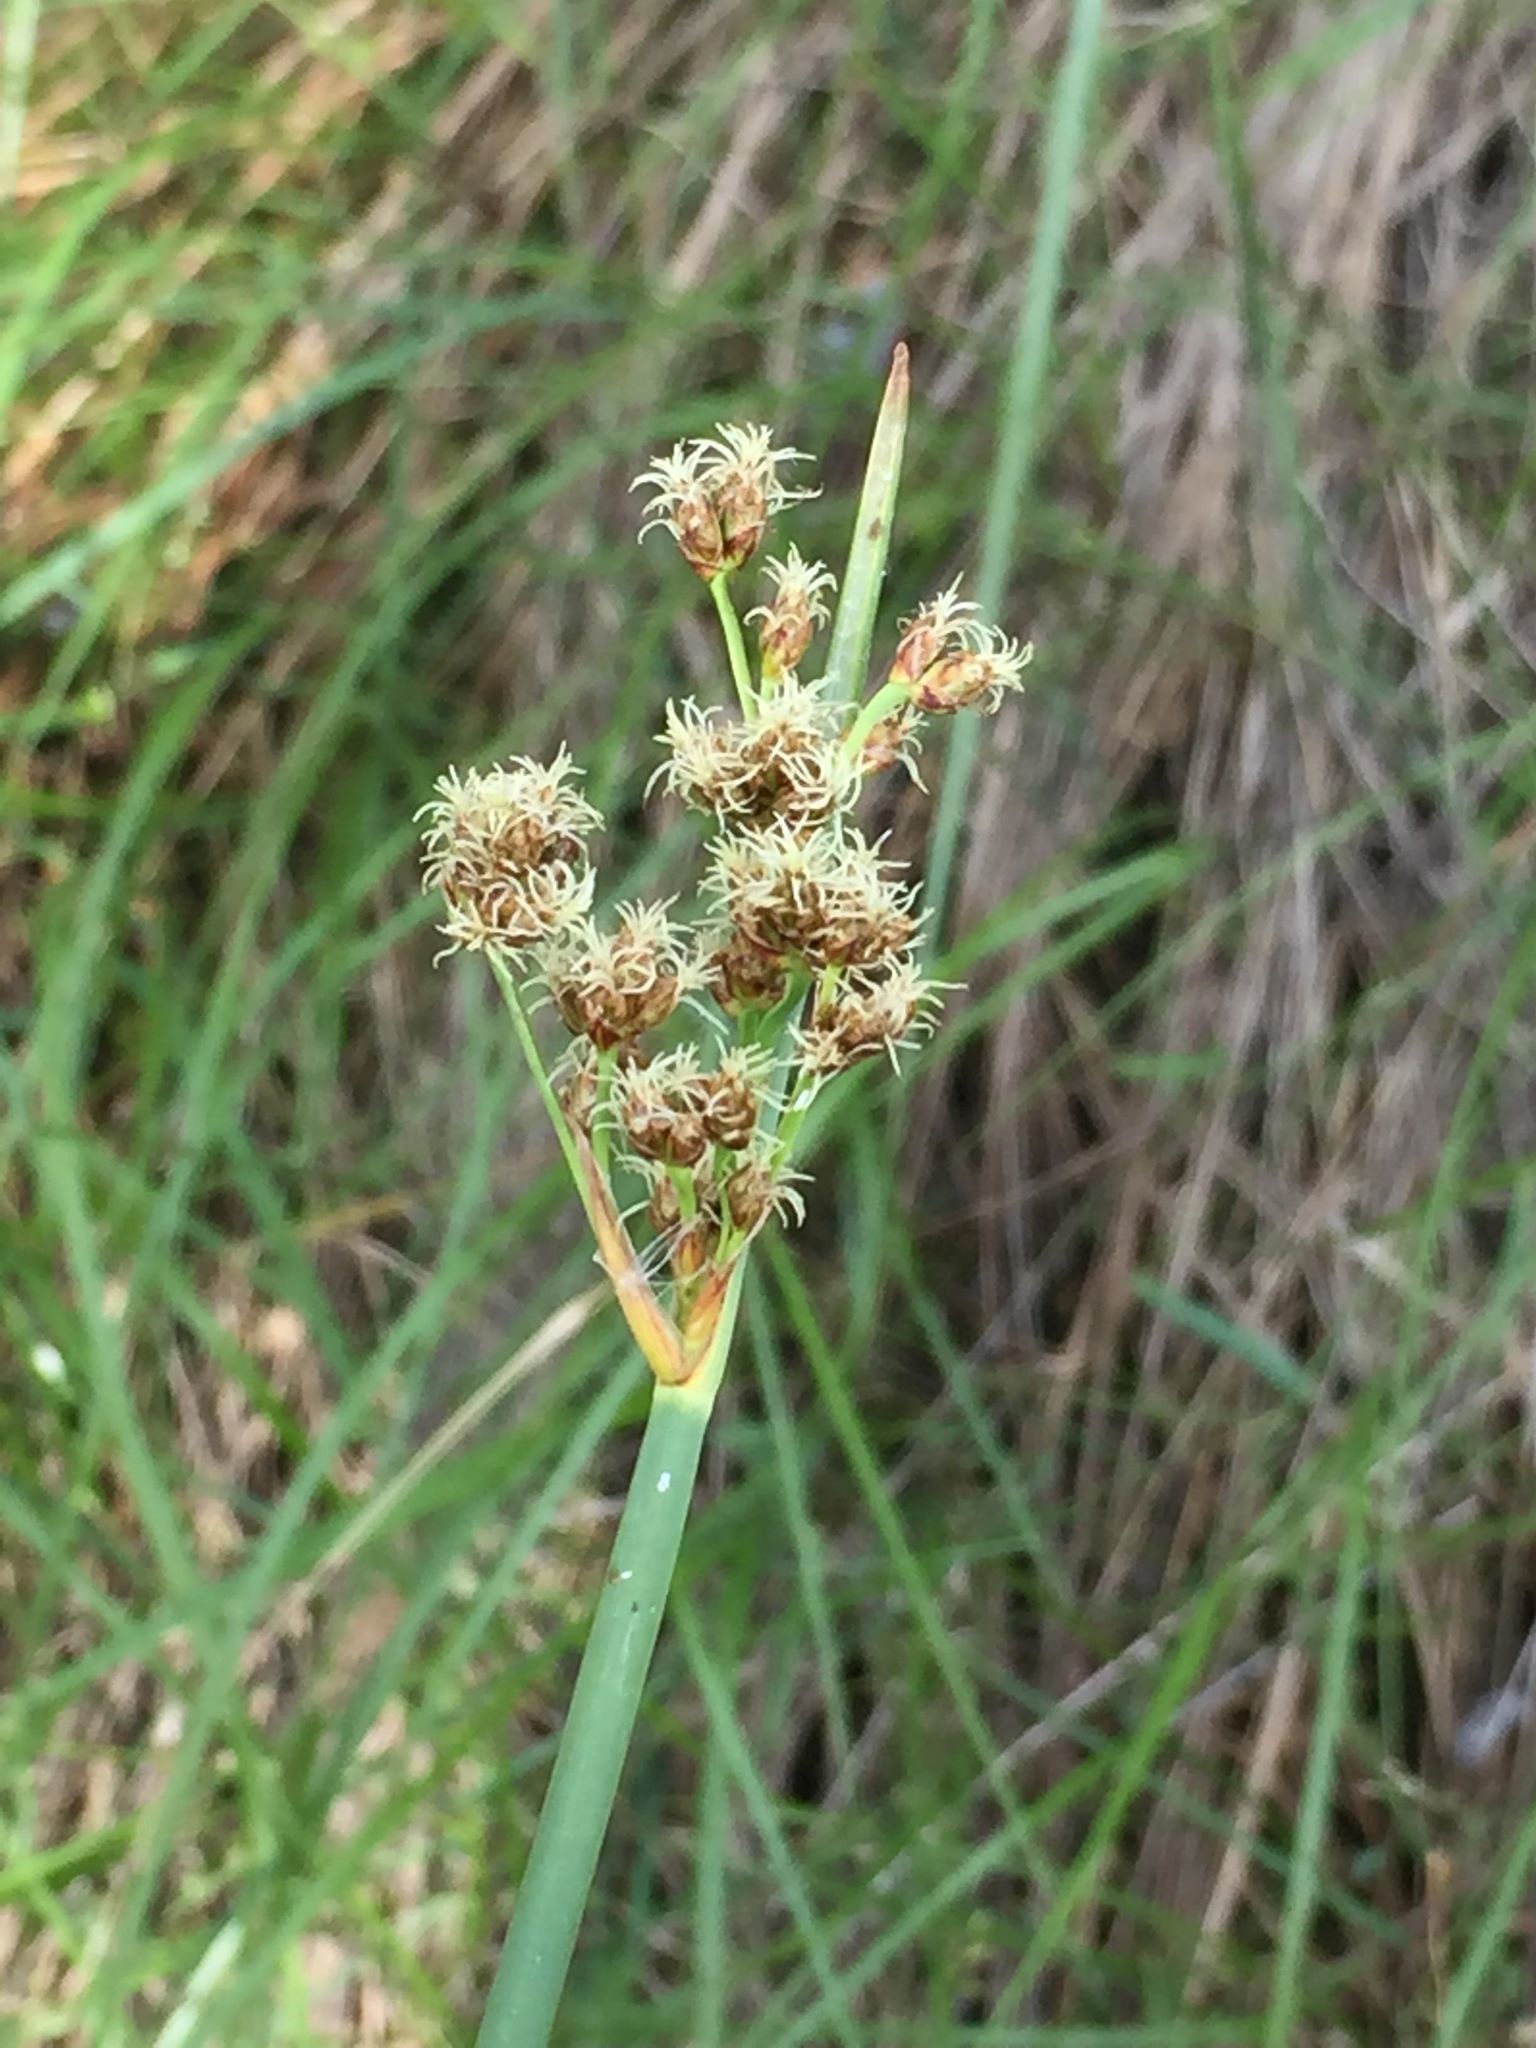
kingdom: Plantae
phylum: Tracheophyta
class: Liliopsida
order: Poales
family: Cyperaceae
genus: Schoenoplectus
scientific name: Schoenoplectus acutus
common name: Hardstem bulrush
